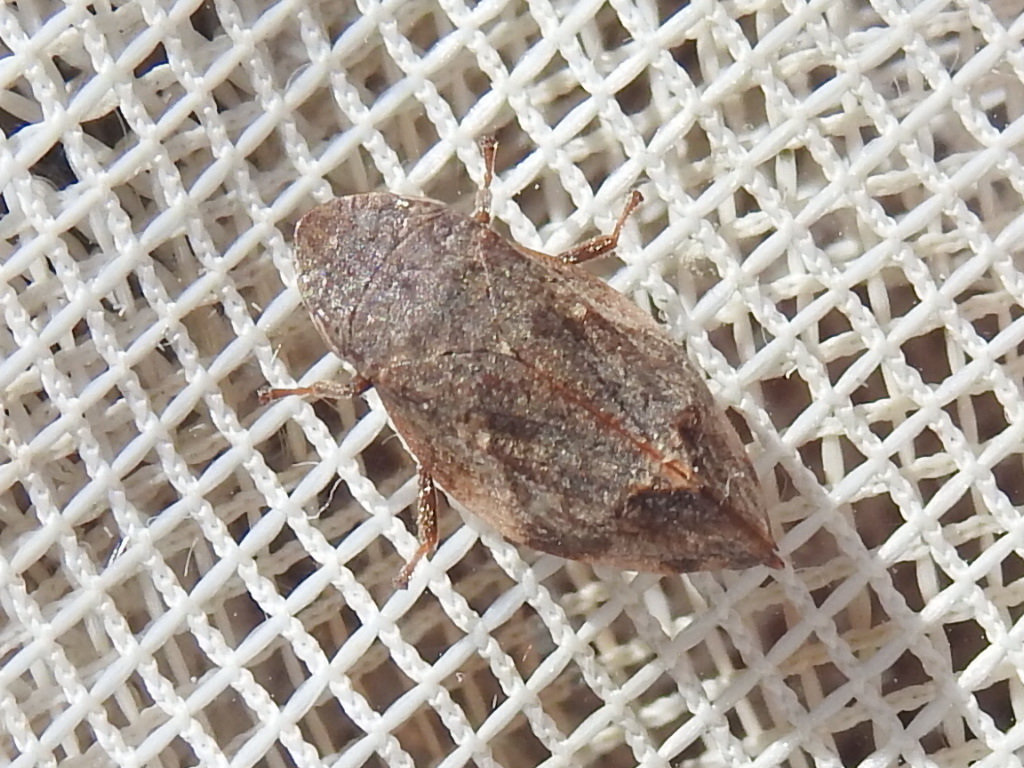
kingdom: Animalia
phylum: Arthropoda
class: Insecta
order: Hemiptera
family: Aphrophoridae
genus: Lepyronia
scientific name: Lepyronia quadrangularis
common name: Diamond-backed spittlebug
